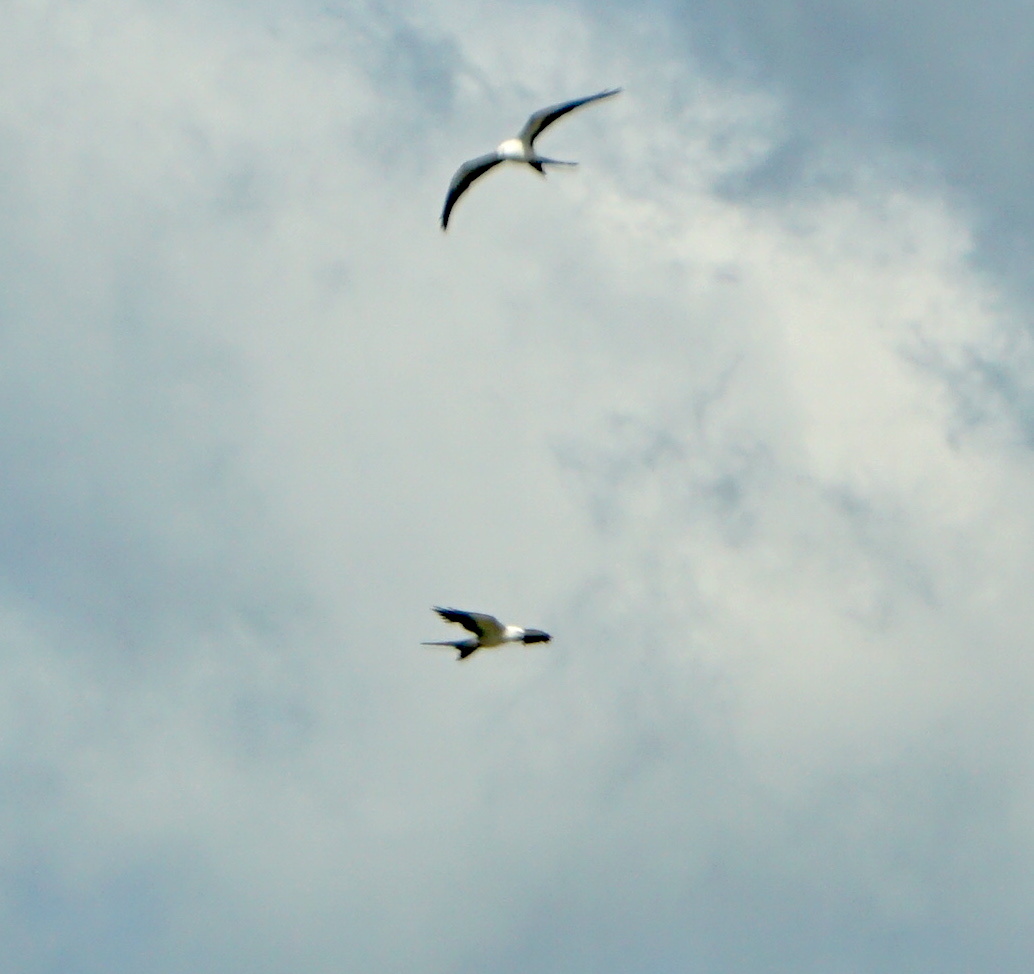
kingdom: Animalia
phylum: Chordata
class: Aves
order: Accipitriformes
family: Accipitridae
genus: Elanoides
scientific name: Elanoides forficatus
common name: Swallow-tailed kite
